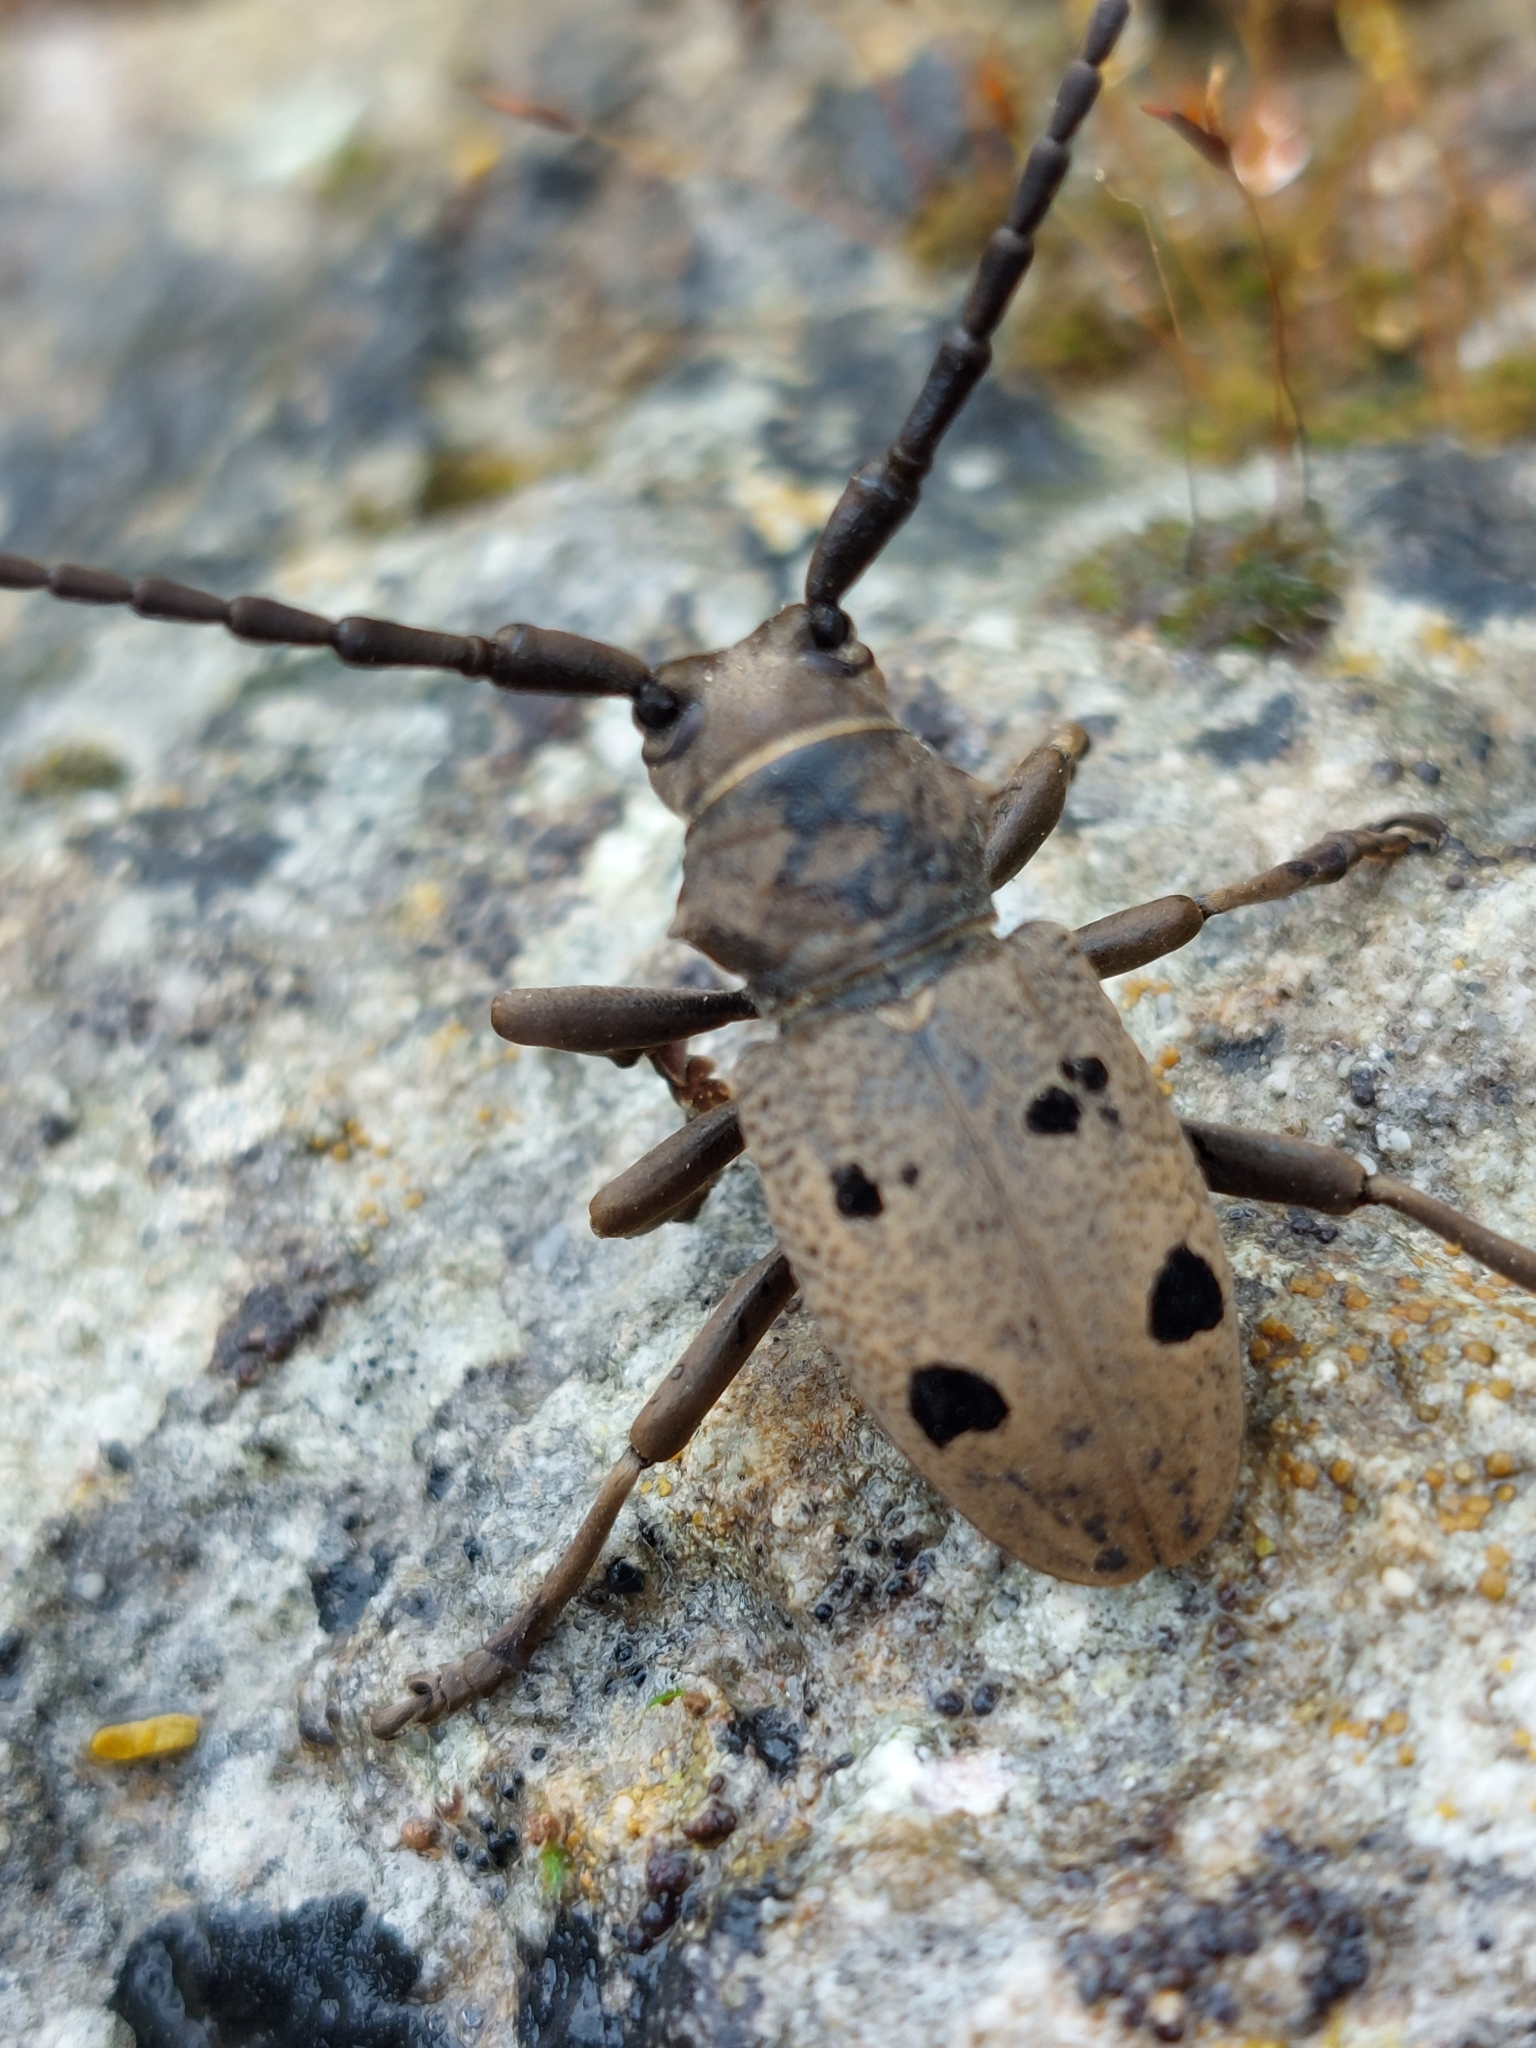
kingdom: Animalia
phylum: Arthropoda
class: Insecta
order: Coleoptera
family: Cerambycidae
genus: Herophila
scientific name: Herophila tristis
